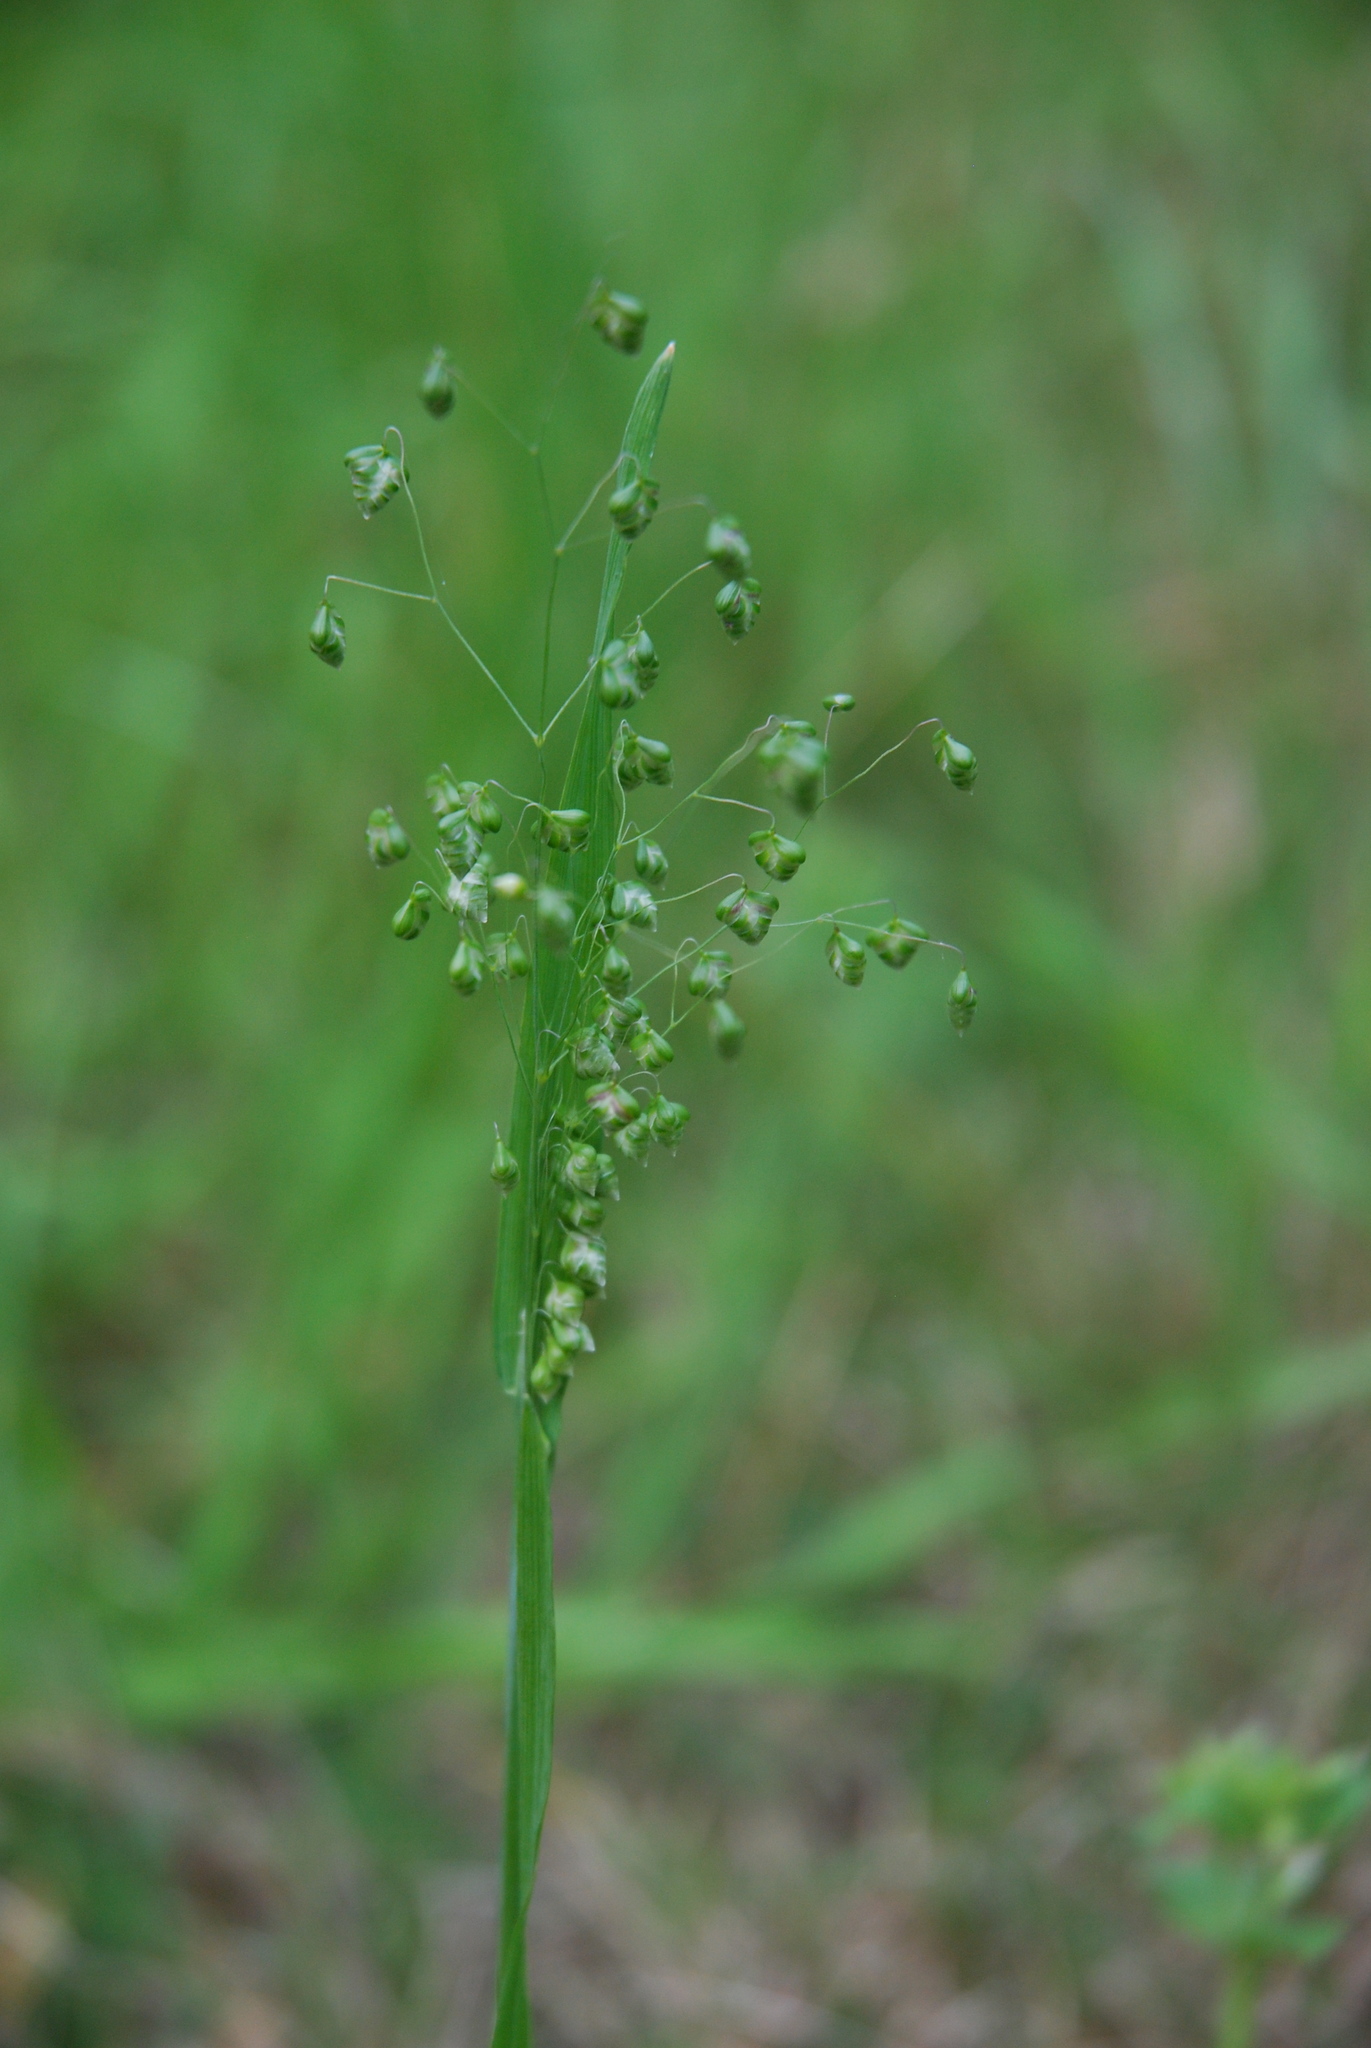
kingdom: Plantae
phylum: Tracheophyta
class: Liliopsida
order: Poales
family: Poaceae
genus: Briza
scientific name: Briza minor
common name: Lesser quaking-grass
